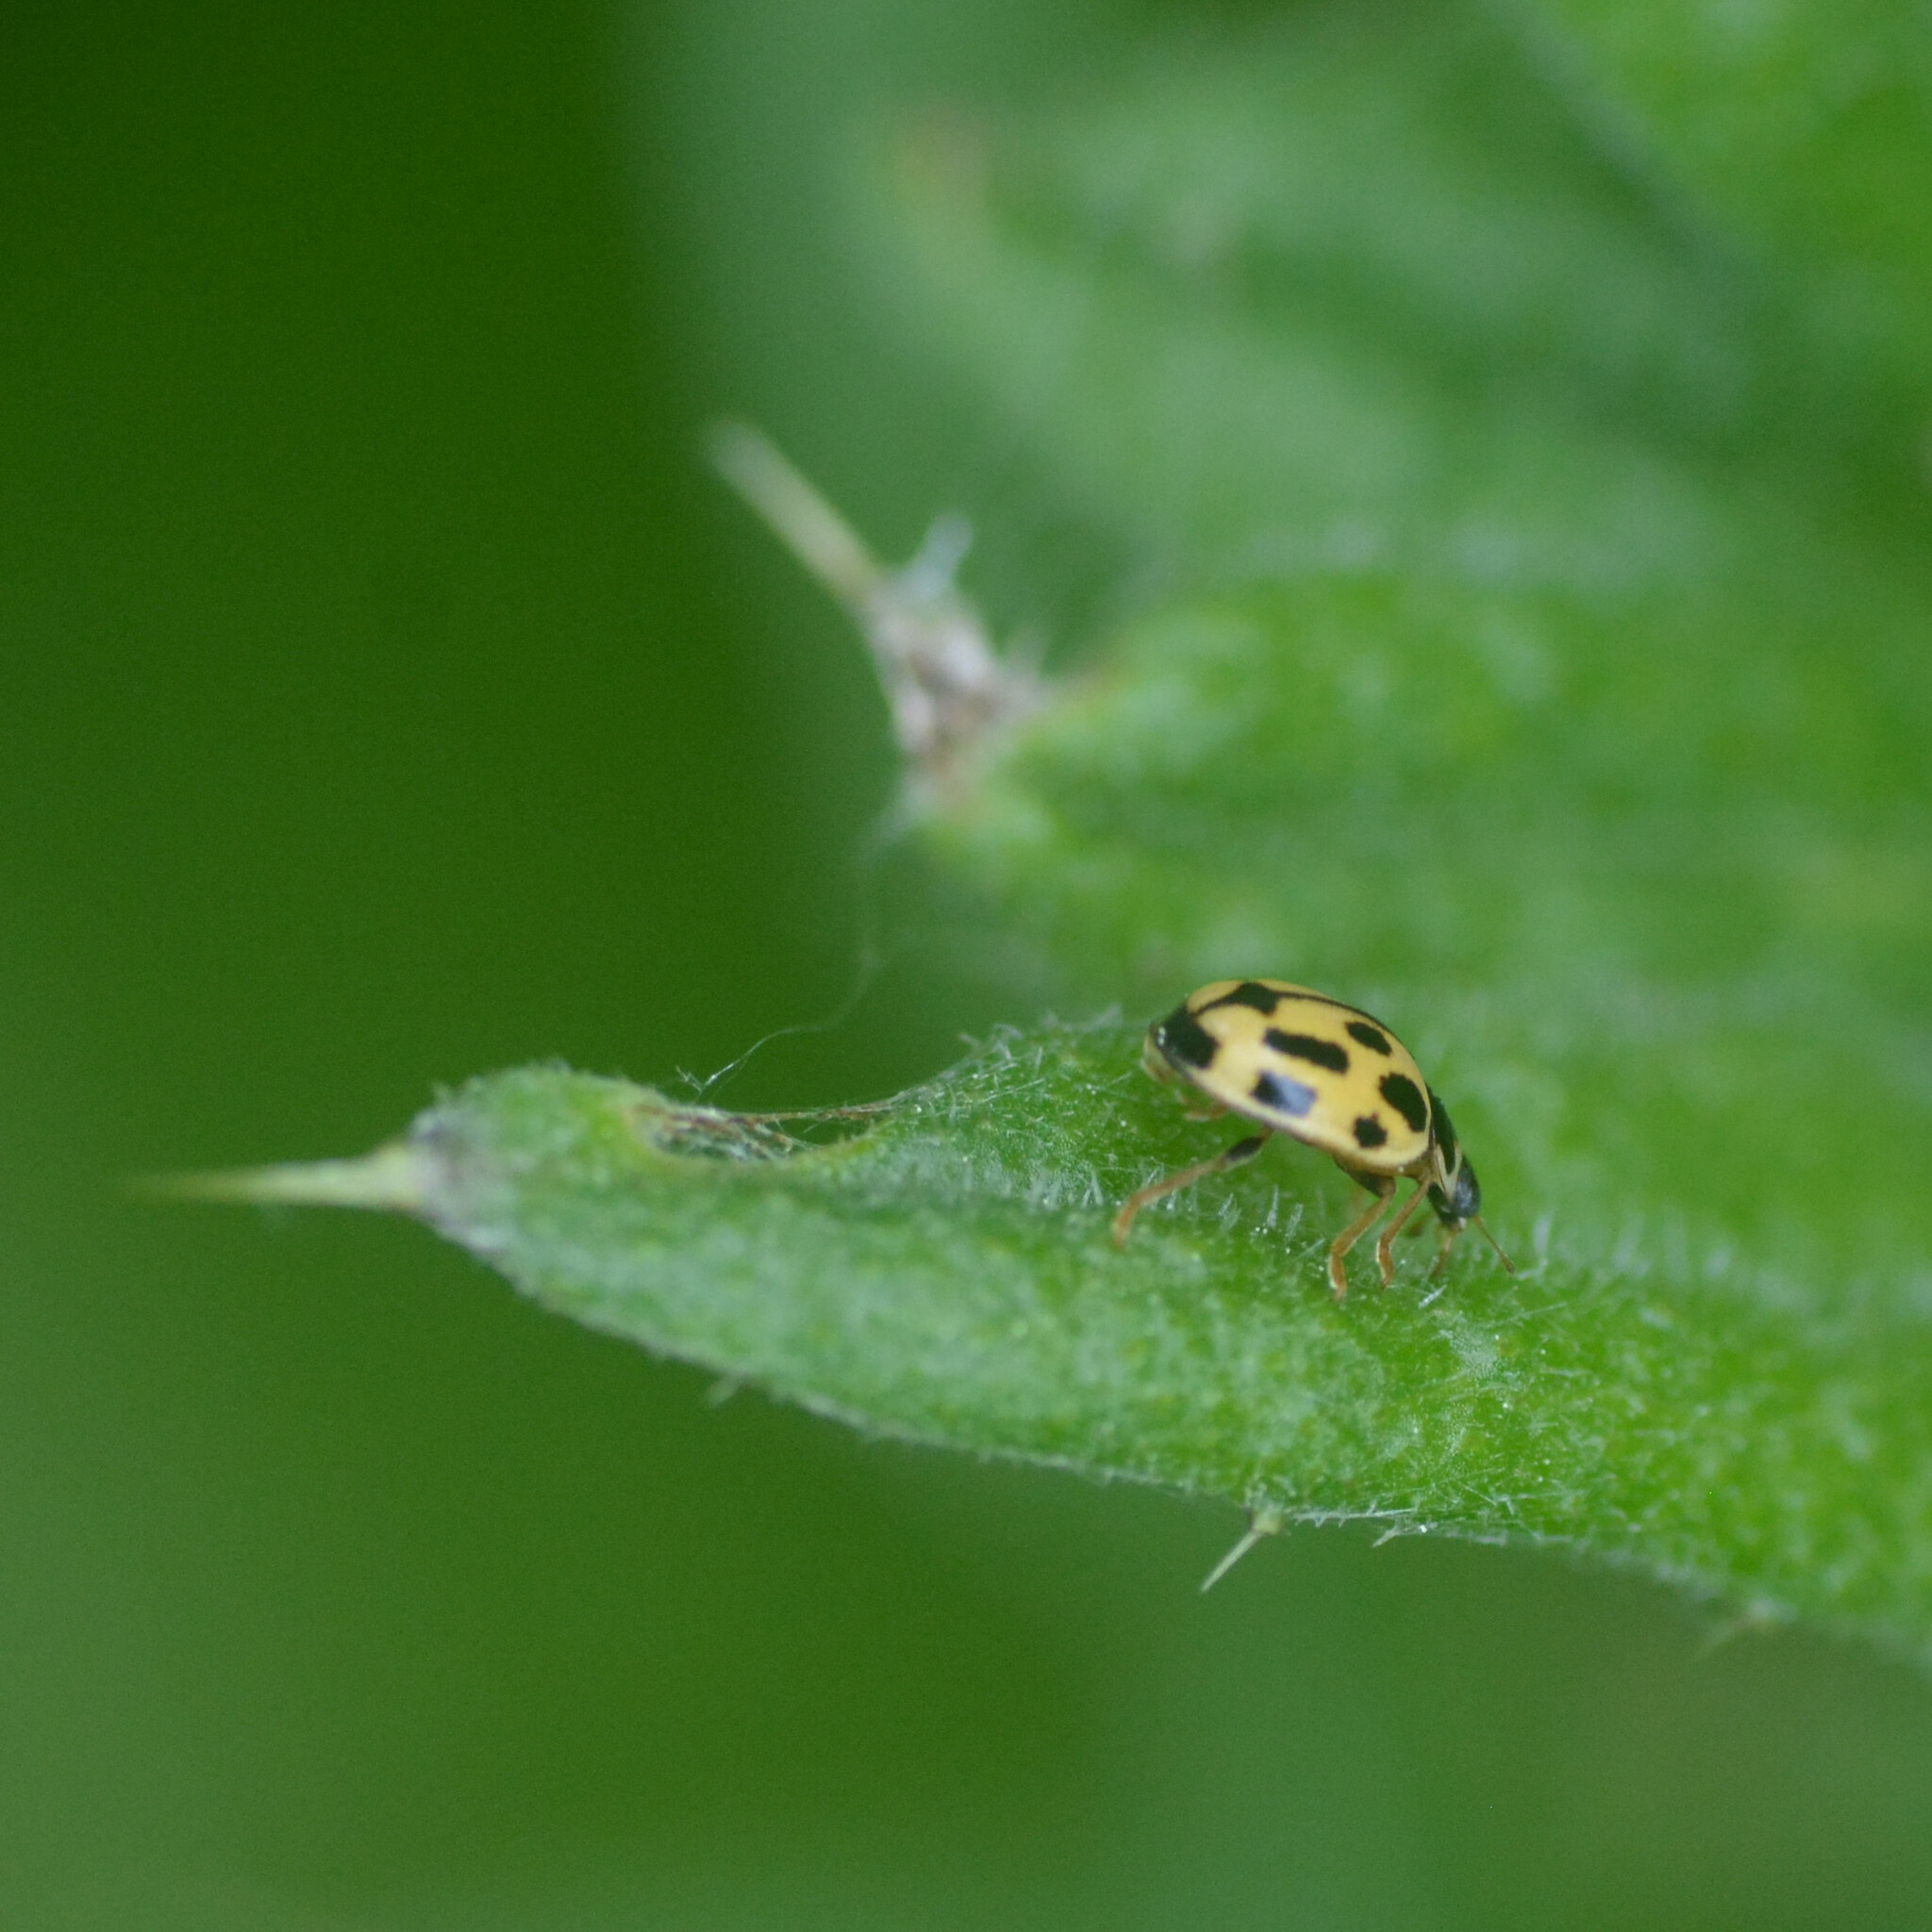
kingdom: Animalia
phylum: Arthropoda
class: Insecta
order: Coleoptera
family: Coccinellidae
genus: Propylaea
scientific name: Propylaea quatuordecimpunctata
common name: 14-spotted ladybird beetle
